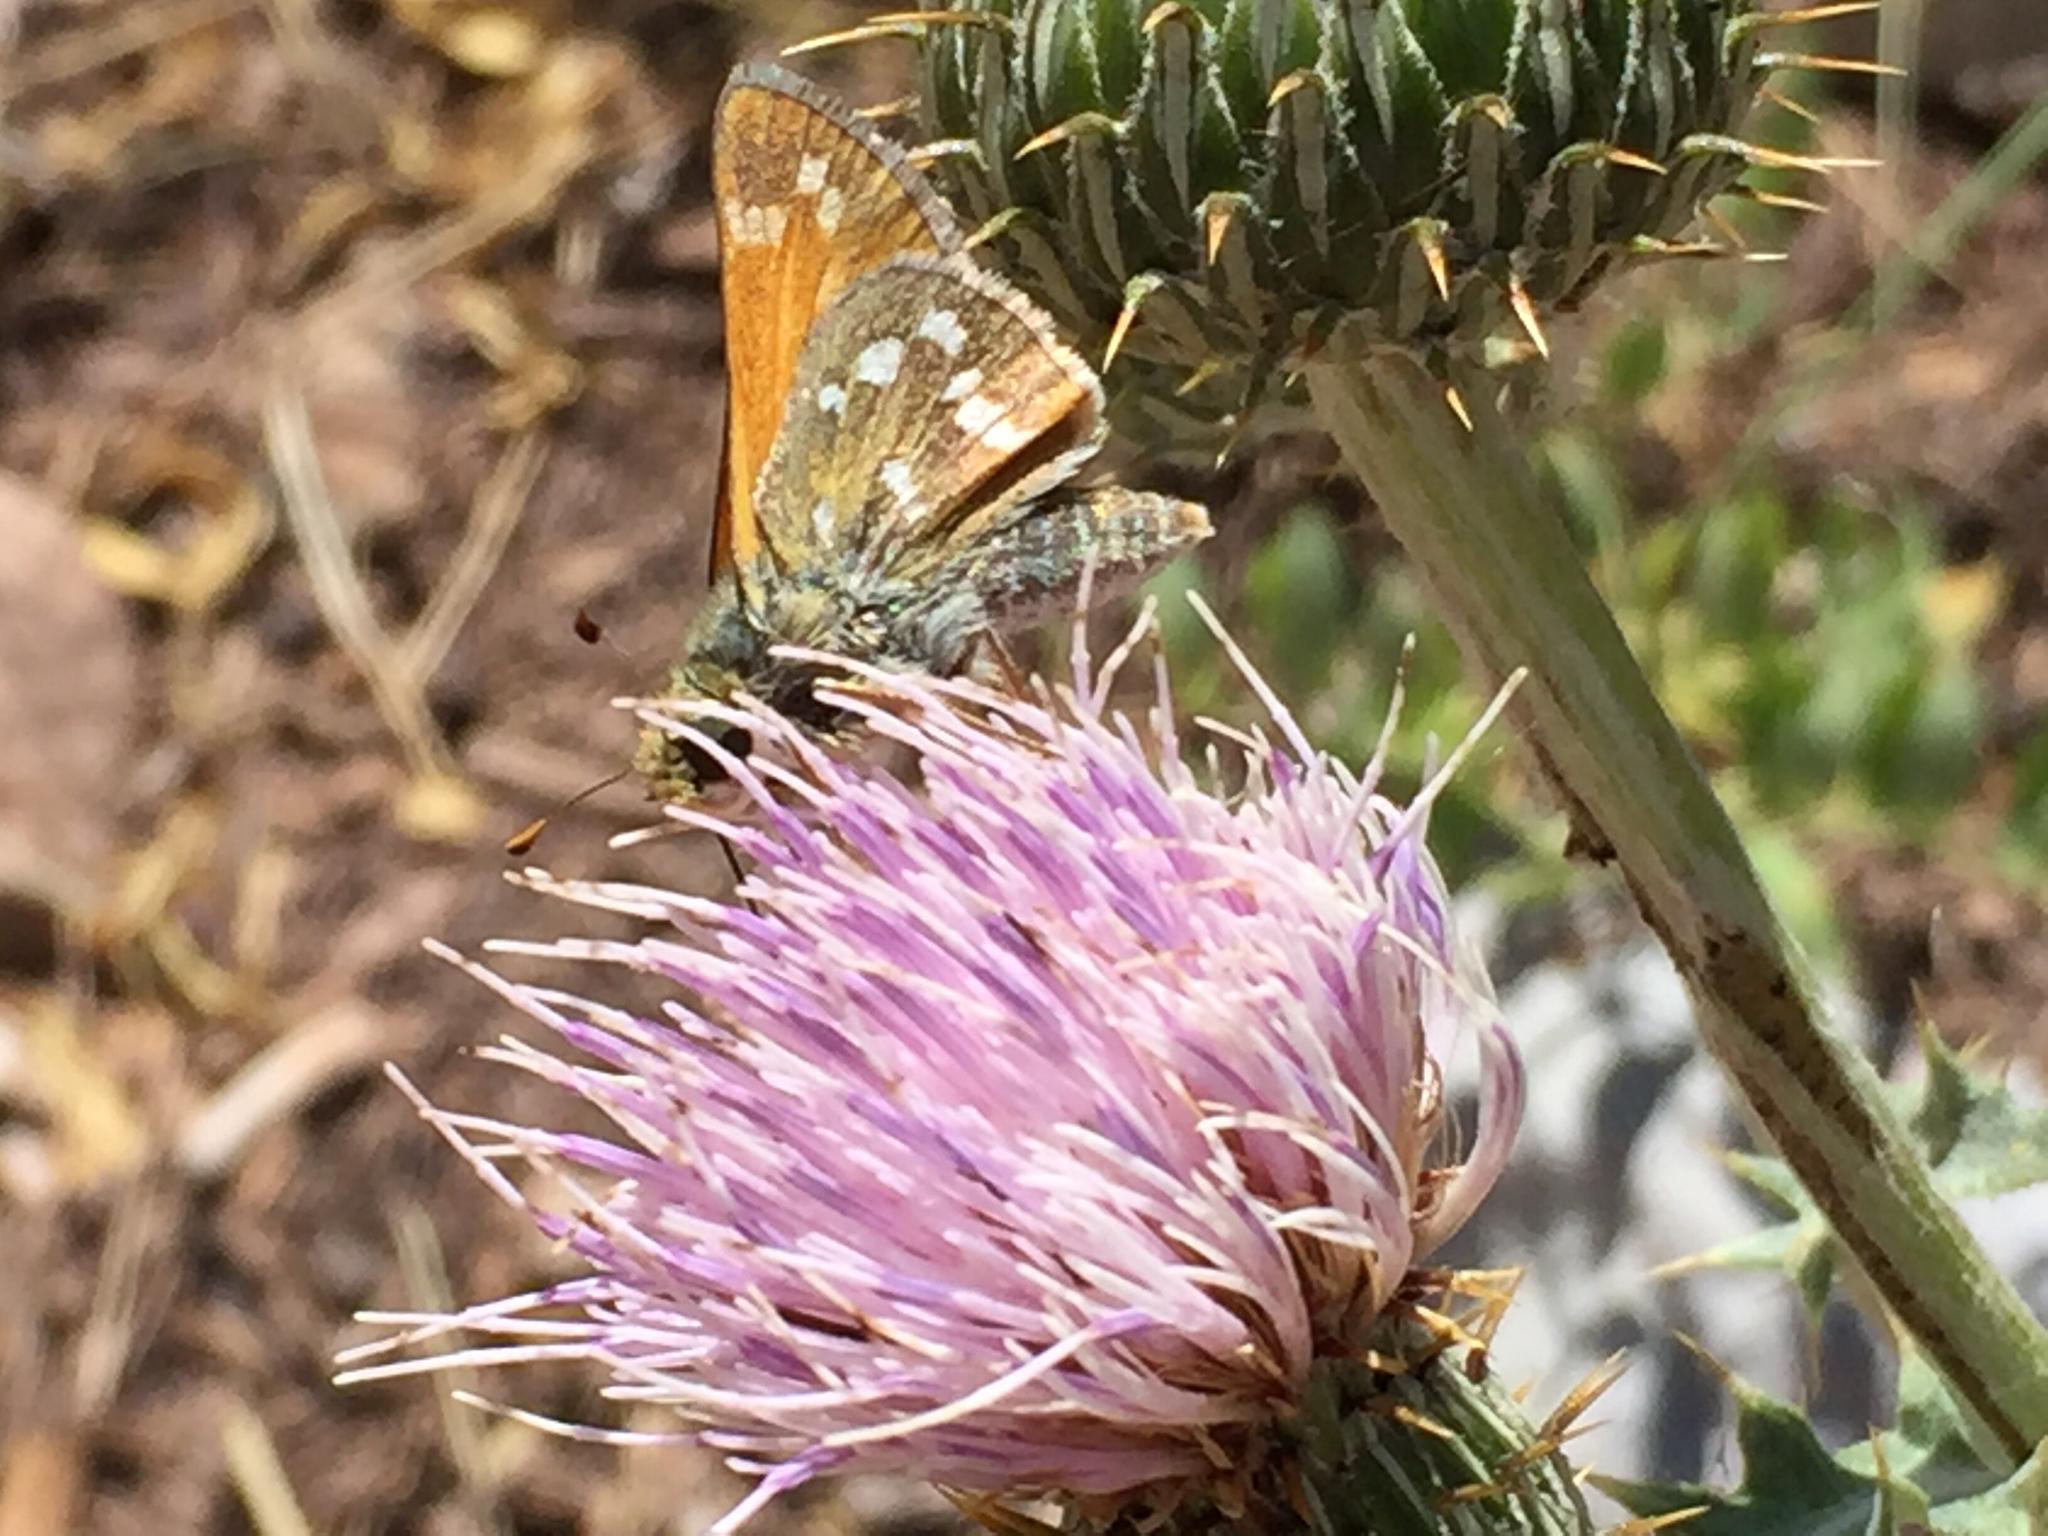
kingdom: Animalia
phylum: Arthropoda
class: Insecta
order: Lepidoptera
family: Hesperiidae
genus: Hesperia
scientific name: Hesperia comma
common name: Common branded skipper
